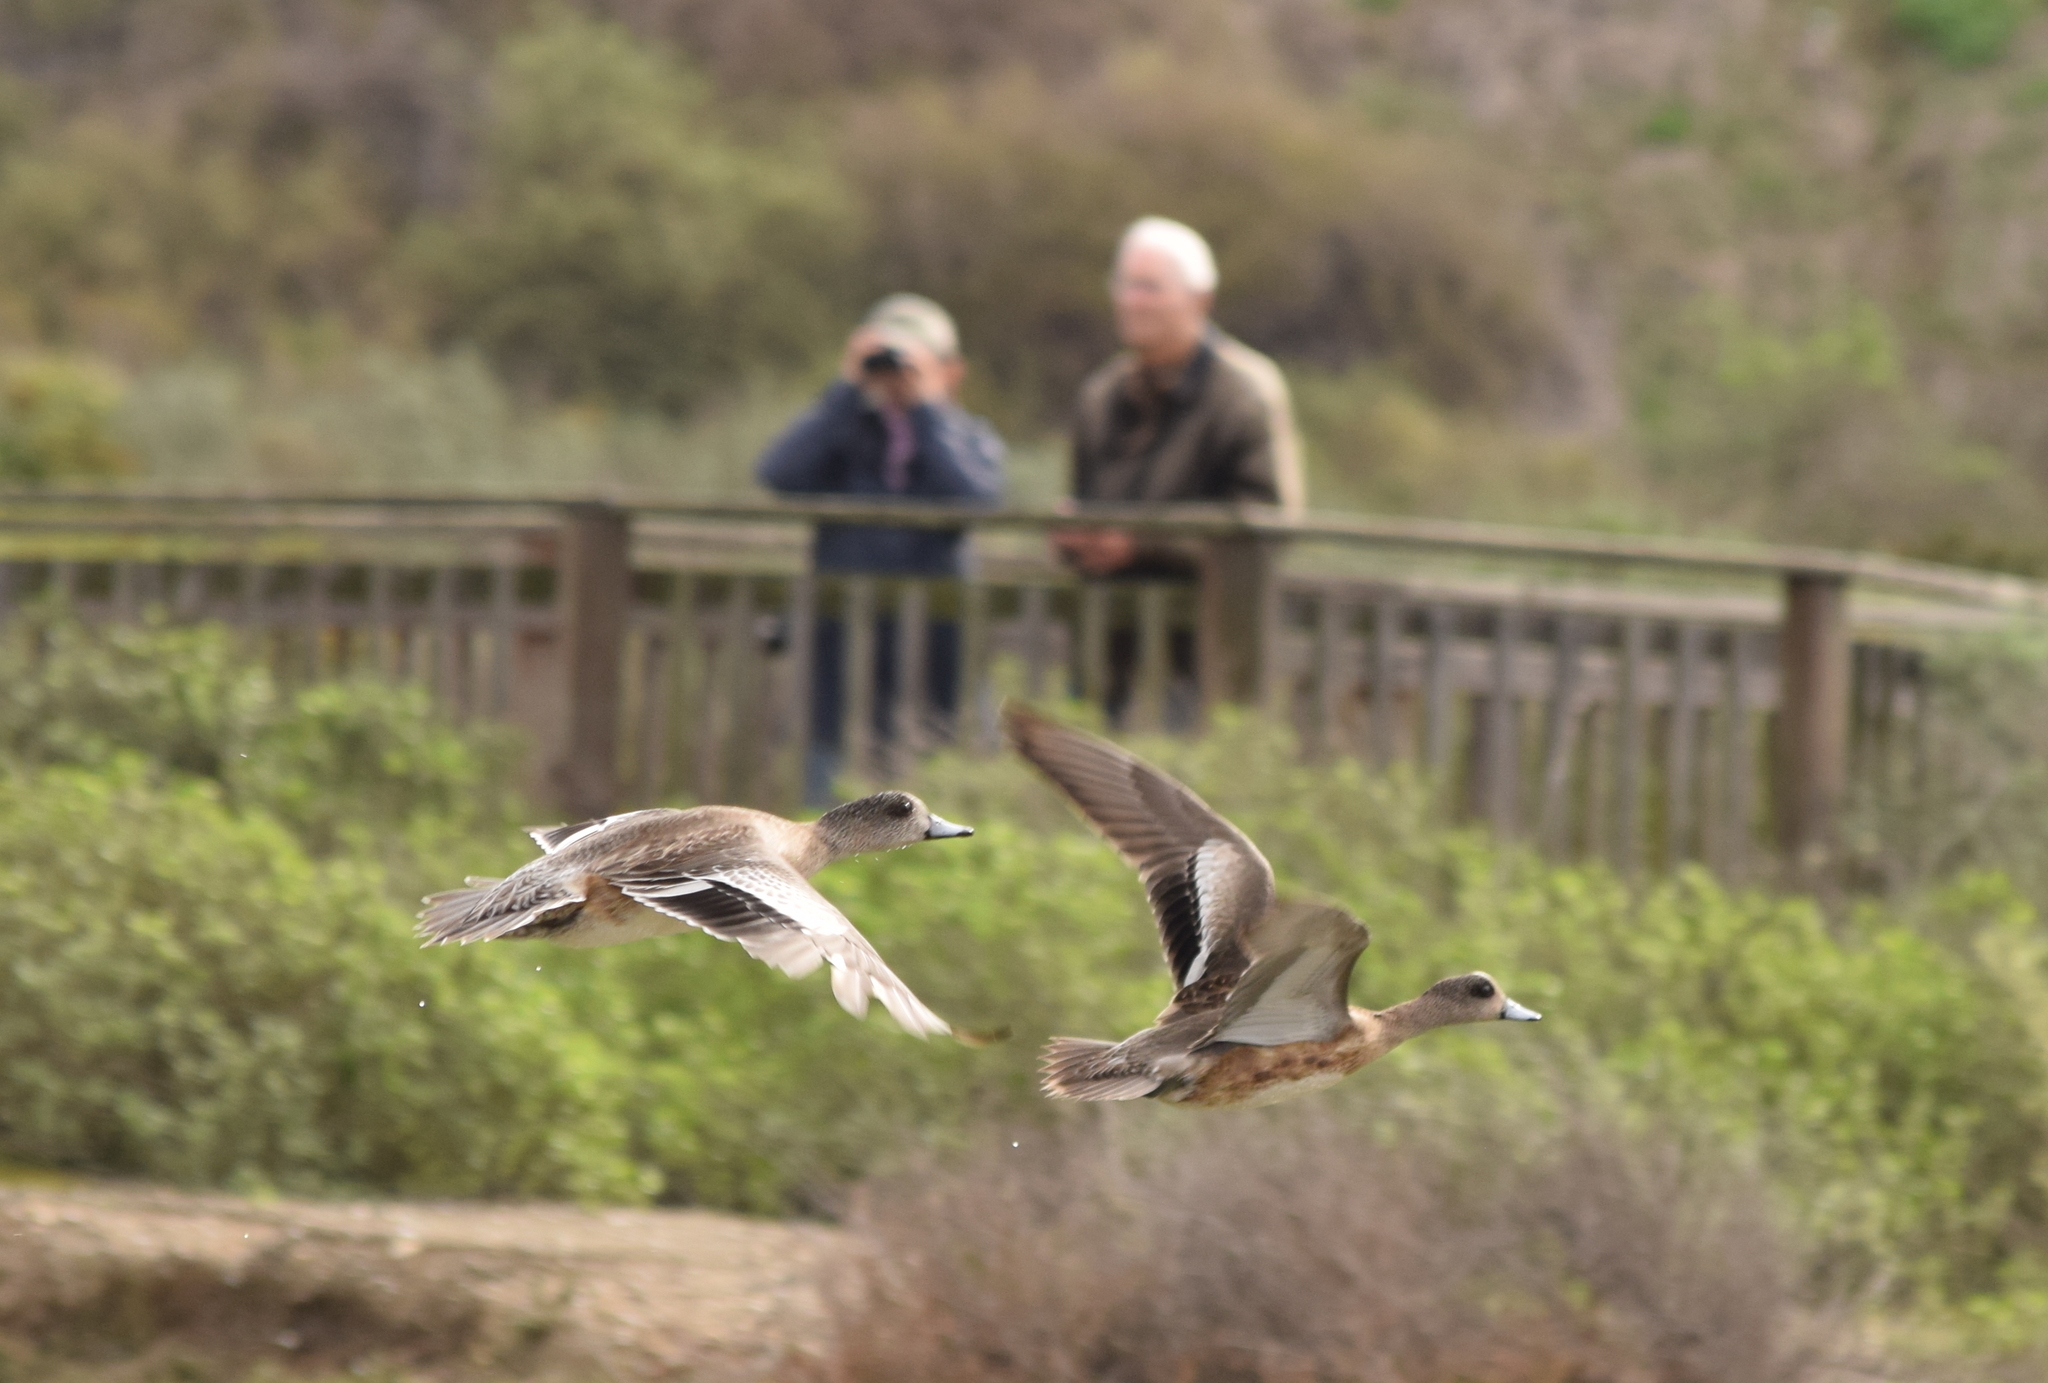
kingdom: Animalia
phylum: Chordata
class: Aves
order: Anseriformes
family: Anatidae
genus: Mareca
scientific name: Mareca americana
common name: American wigeon
